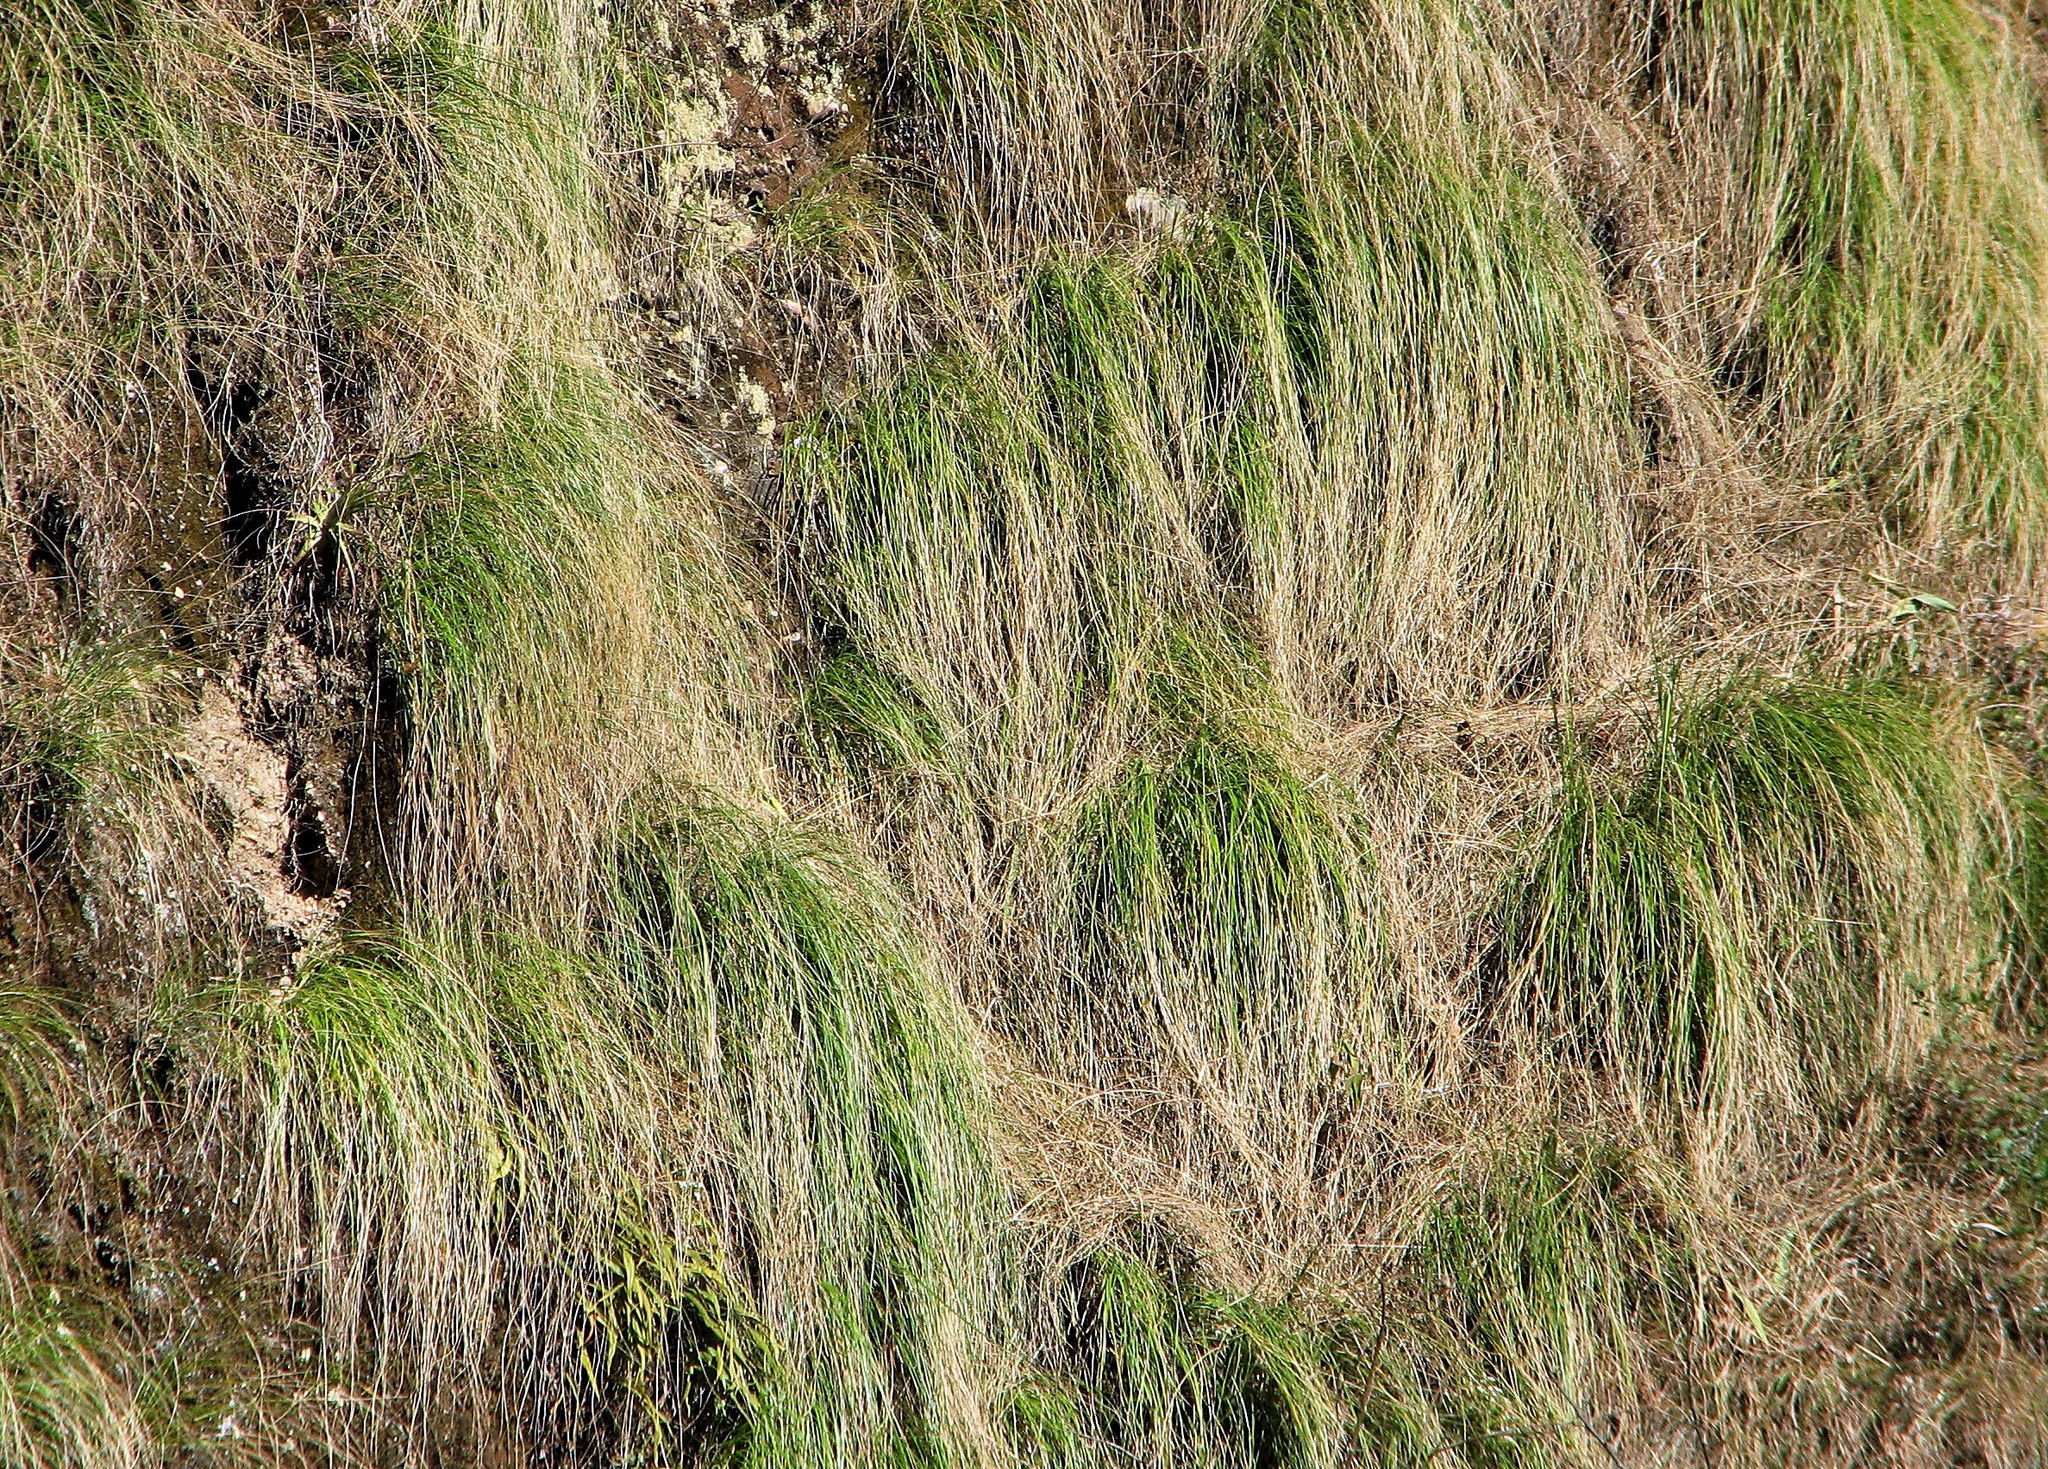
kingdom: Plantae
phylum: Tracheophyta
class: Liliopsida
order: Poales
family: Poaceae
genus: Cortaderia
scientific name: Cortaderia hieronymi
